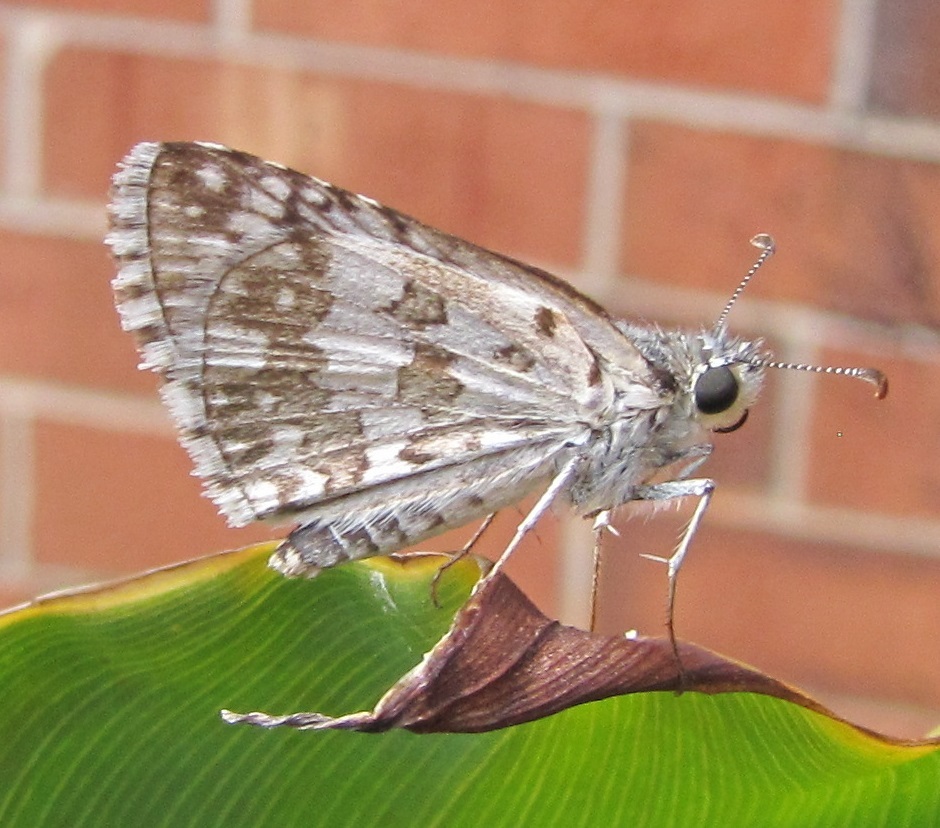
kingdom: Animalia
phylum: Arthropoda
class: Insecta
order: Lepidoptera
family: Hesperiidae
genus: Burnsius
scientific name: Burnsius communis
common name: Common checkered-skipper
